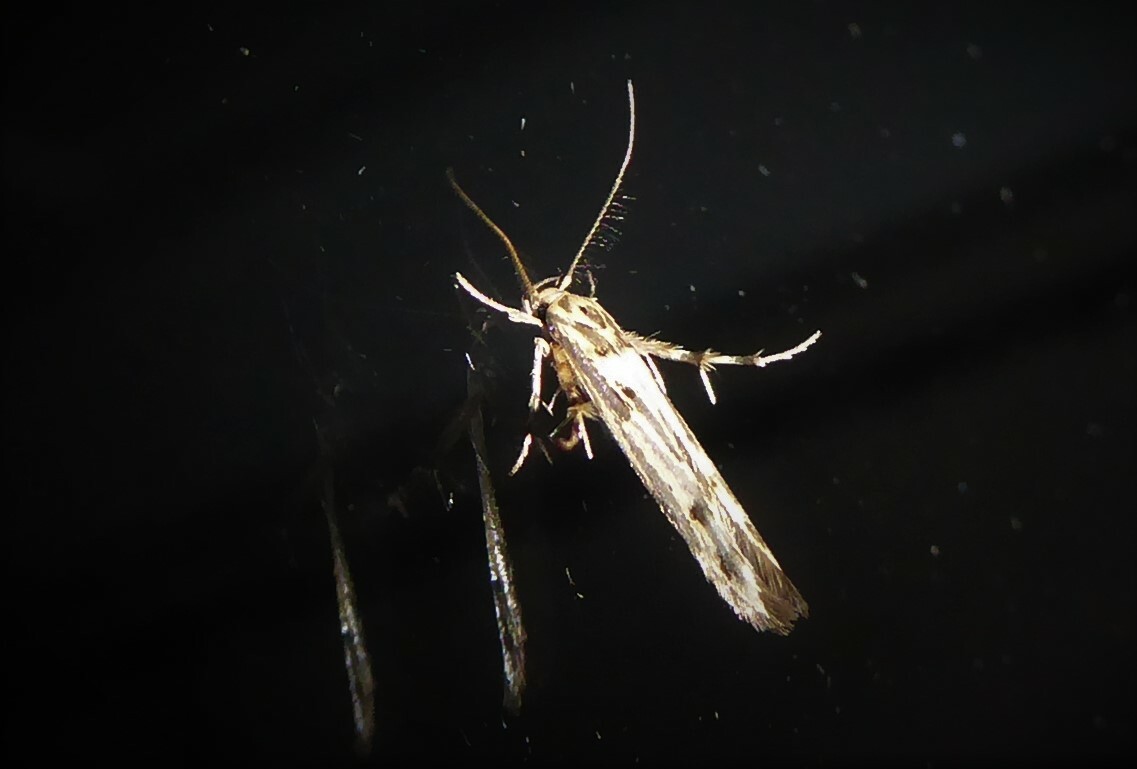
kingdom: Animalia
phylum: Arthropoda
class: Insecta
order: Lepidoptera
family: Stathmopodidae
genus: Stathmopoda
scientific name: Stathmopoda plumbiflua
